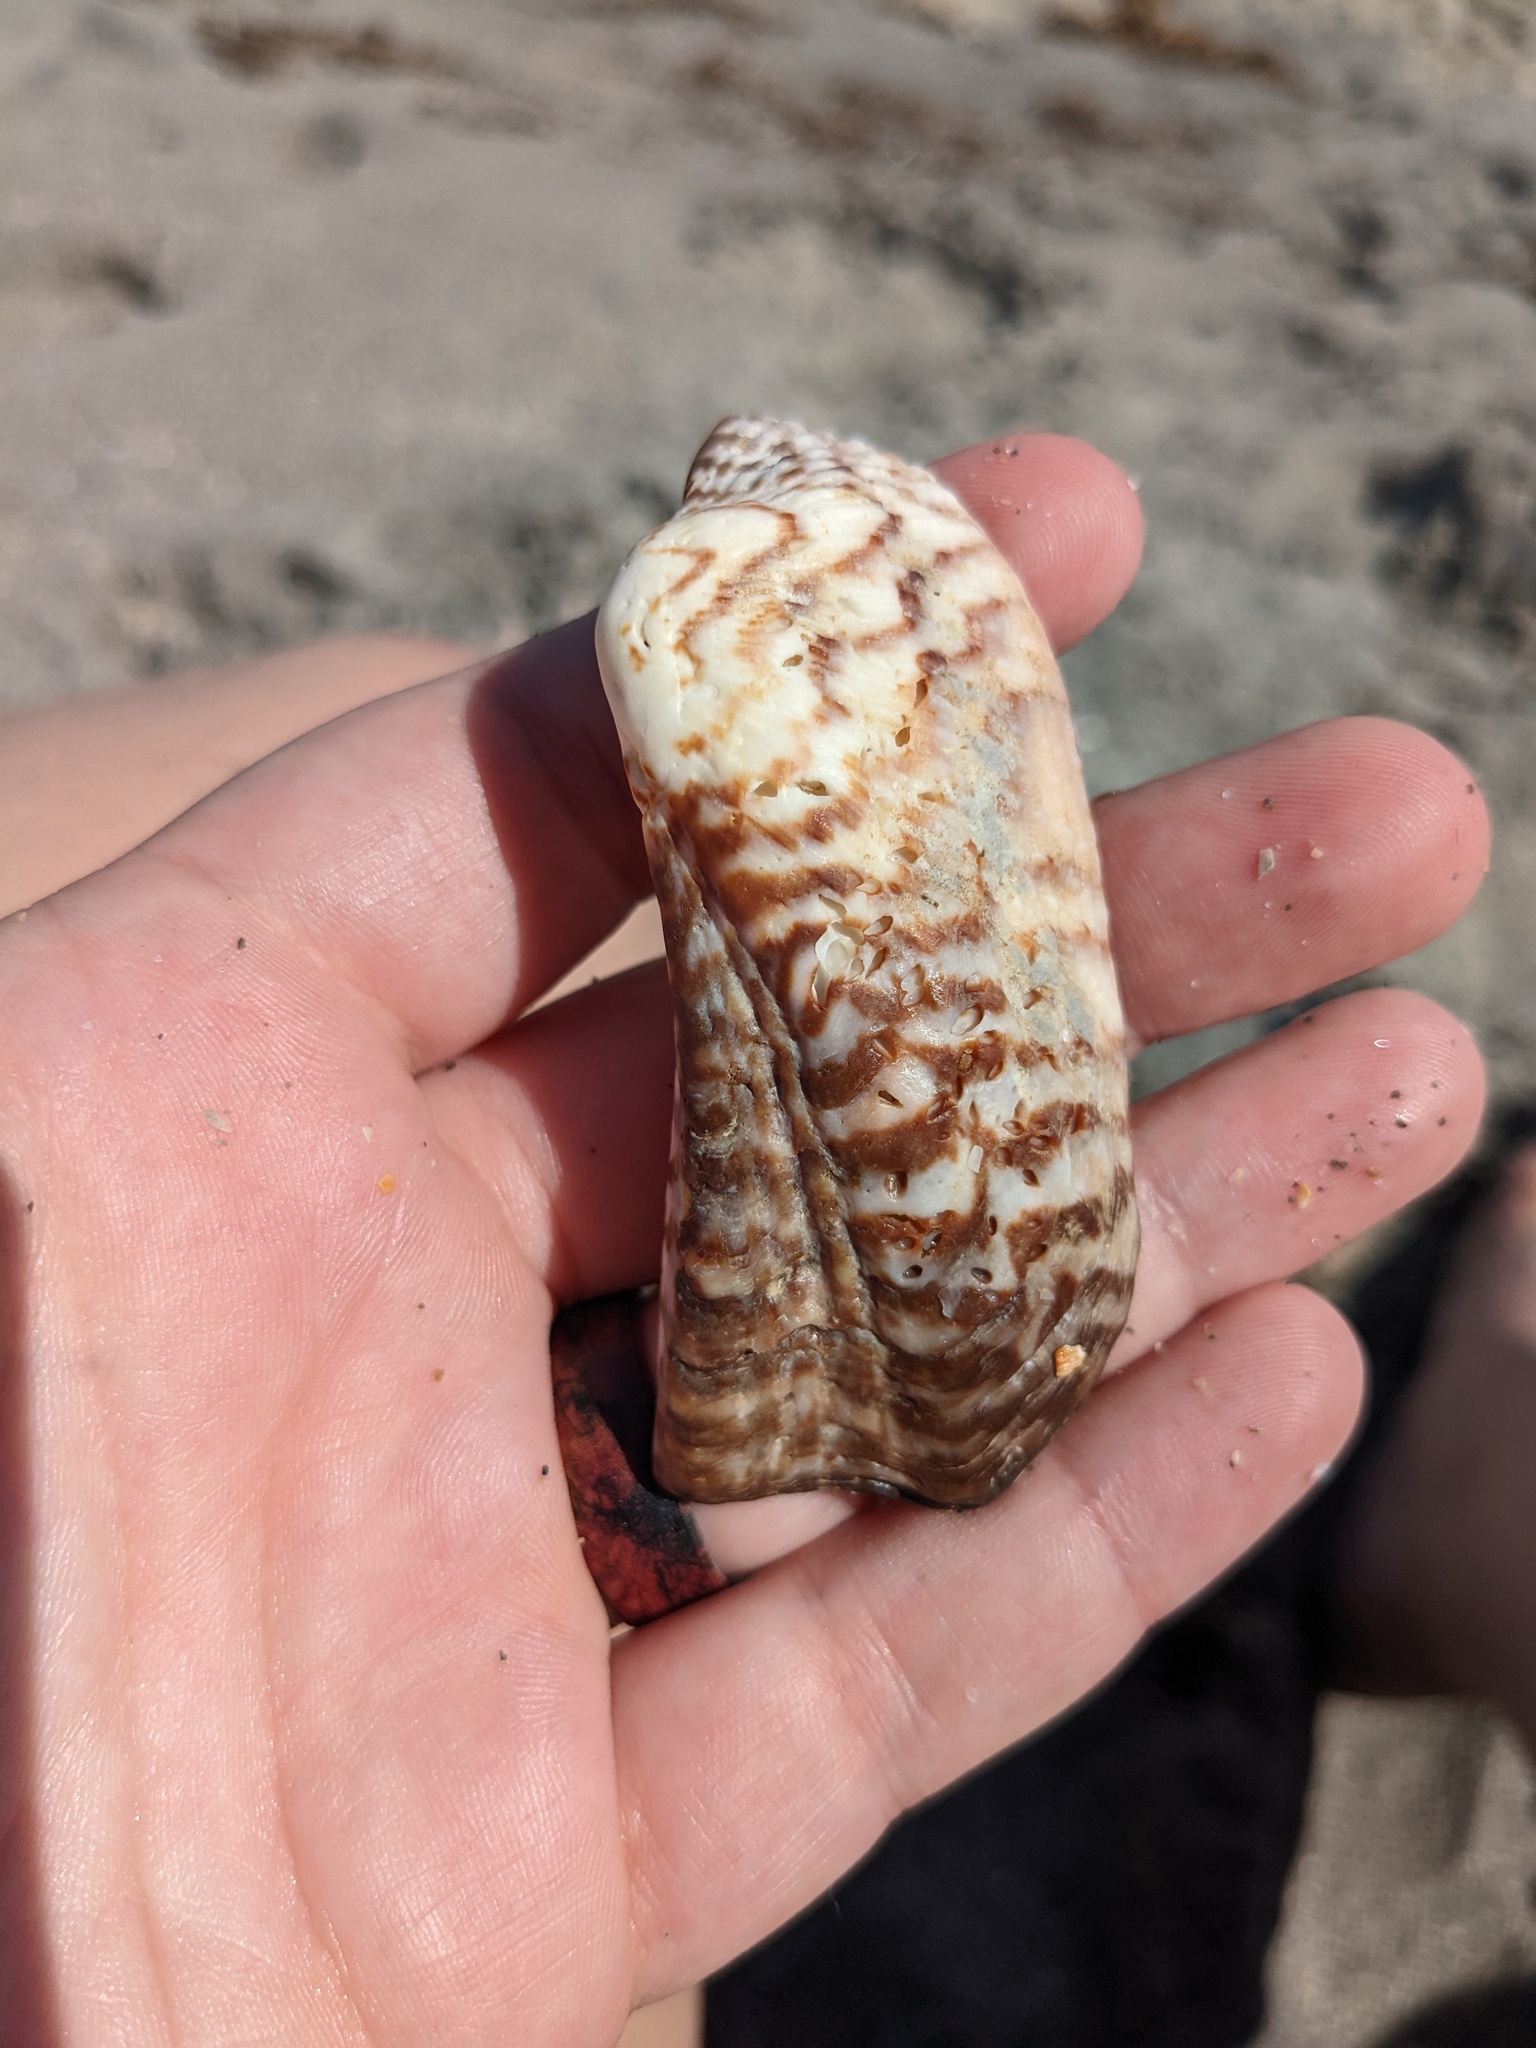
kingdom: Animalia
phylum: Mollusca
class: Bivalvia
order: Arcida
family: Arcidae
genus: Arca
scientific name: Arca zebra
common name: Atlantic turkey wing
